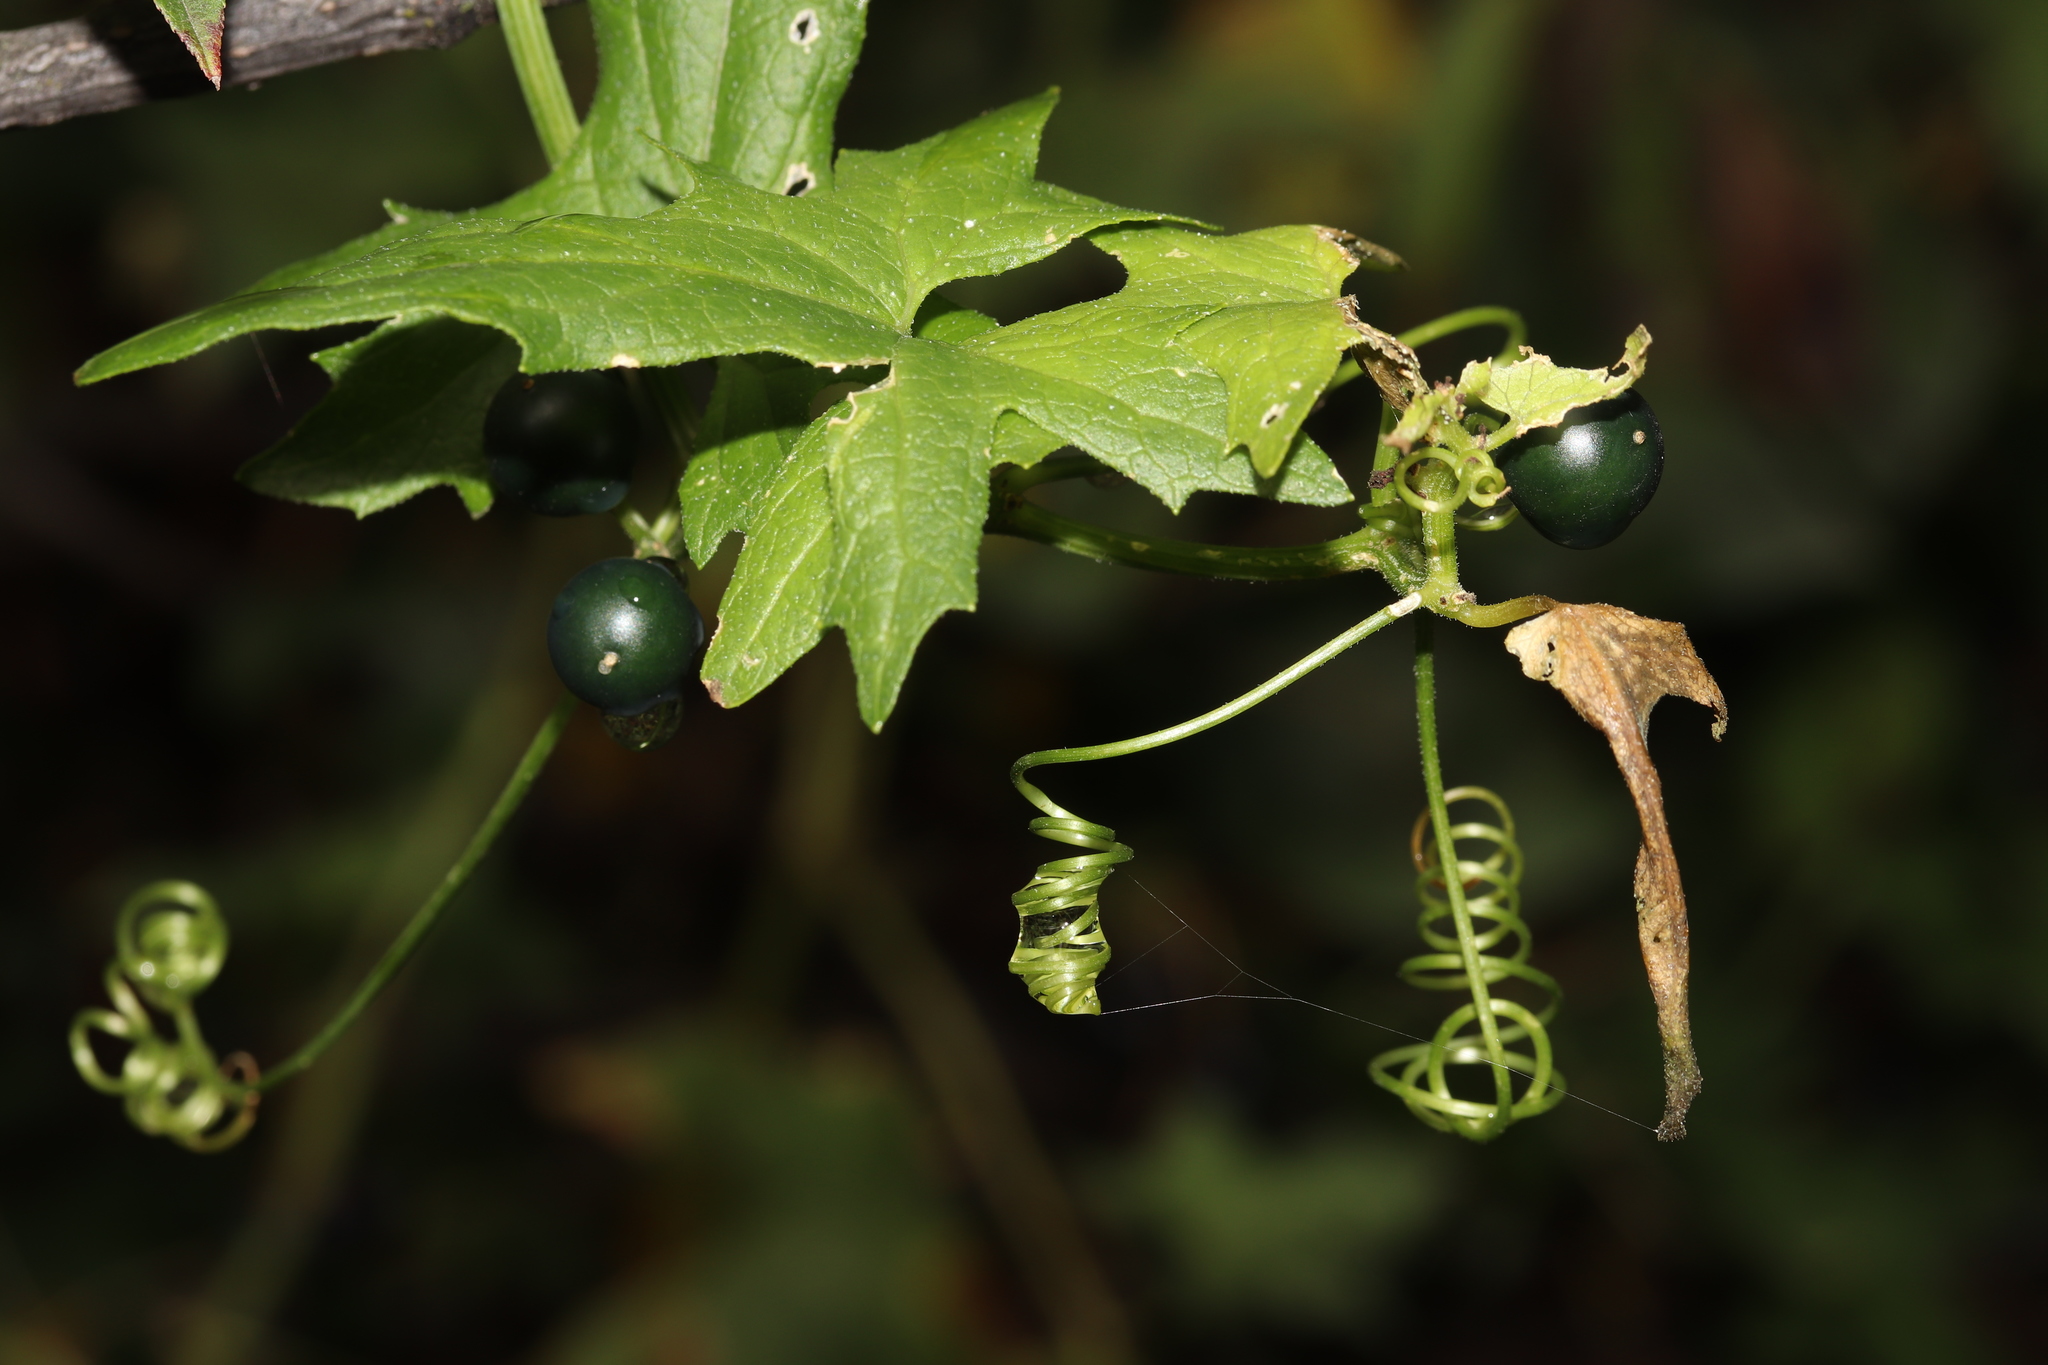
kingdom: Plantae
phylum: Tracheophyta
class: Magnoliopsida
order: Cucurbitales
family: Cucurbitaceae
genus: Bryonia
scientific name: Bryonia alba
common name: White bryony
